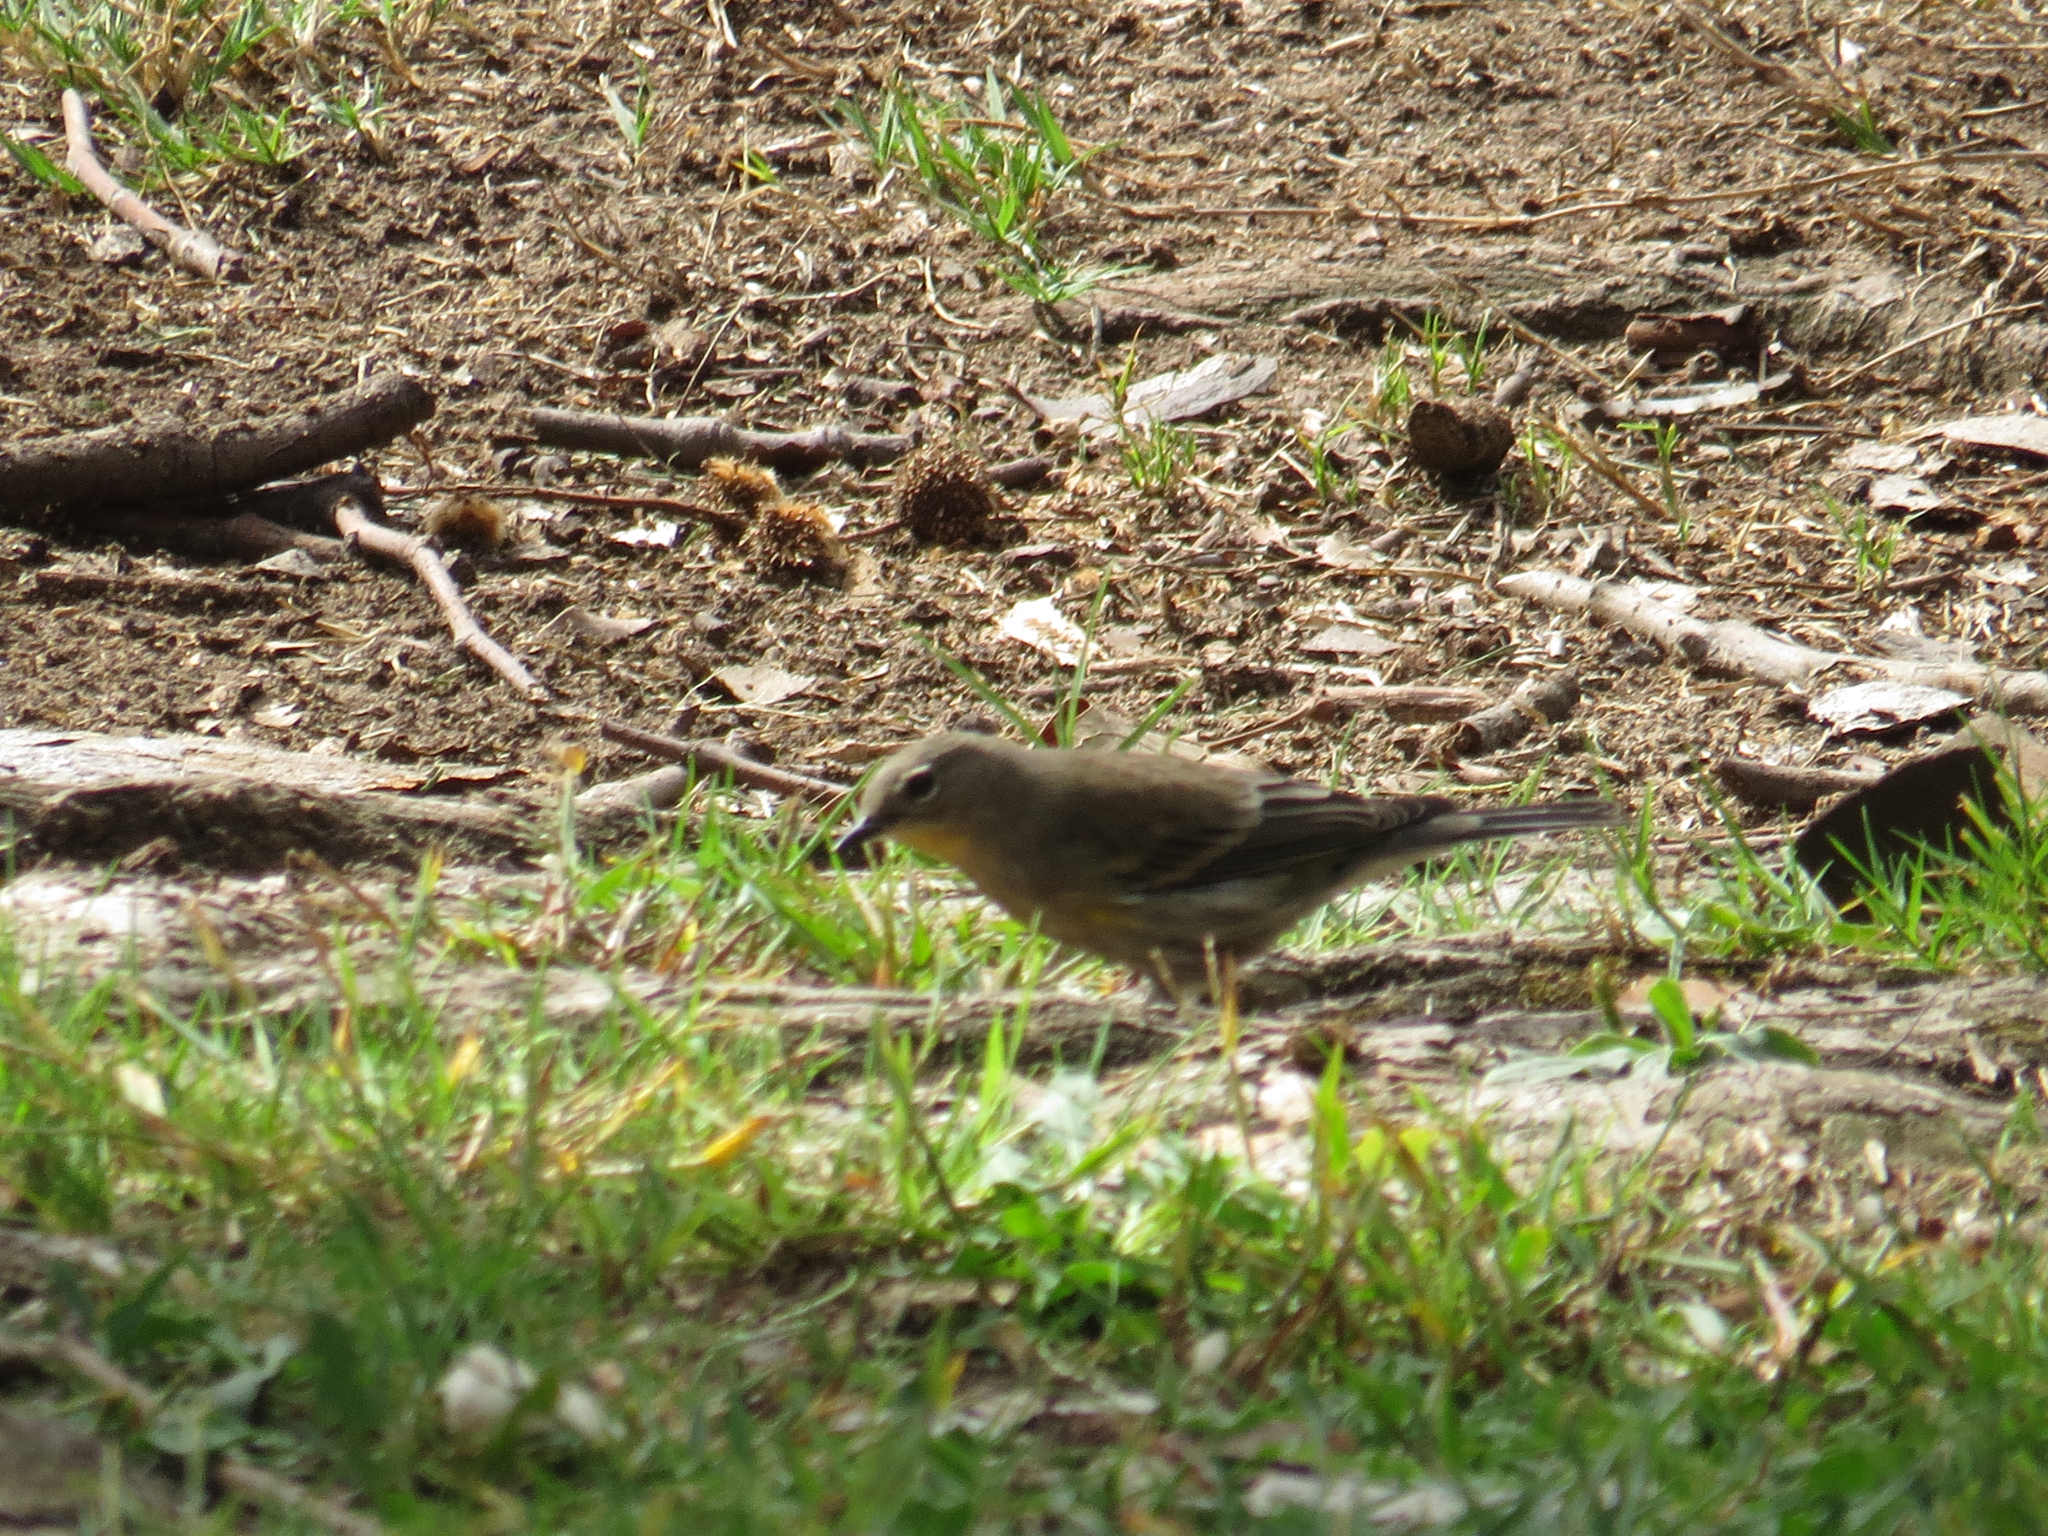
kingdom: Animalia
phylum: Chordata
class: Aves
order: Passeriformes
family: Parulidae
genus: Setophaga
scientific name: Setophaga auduboni
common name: Audubon's warbler
